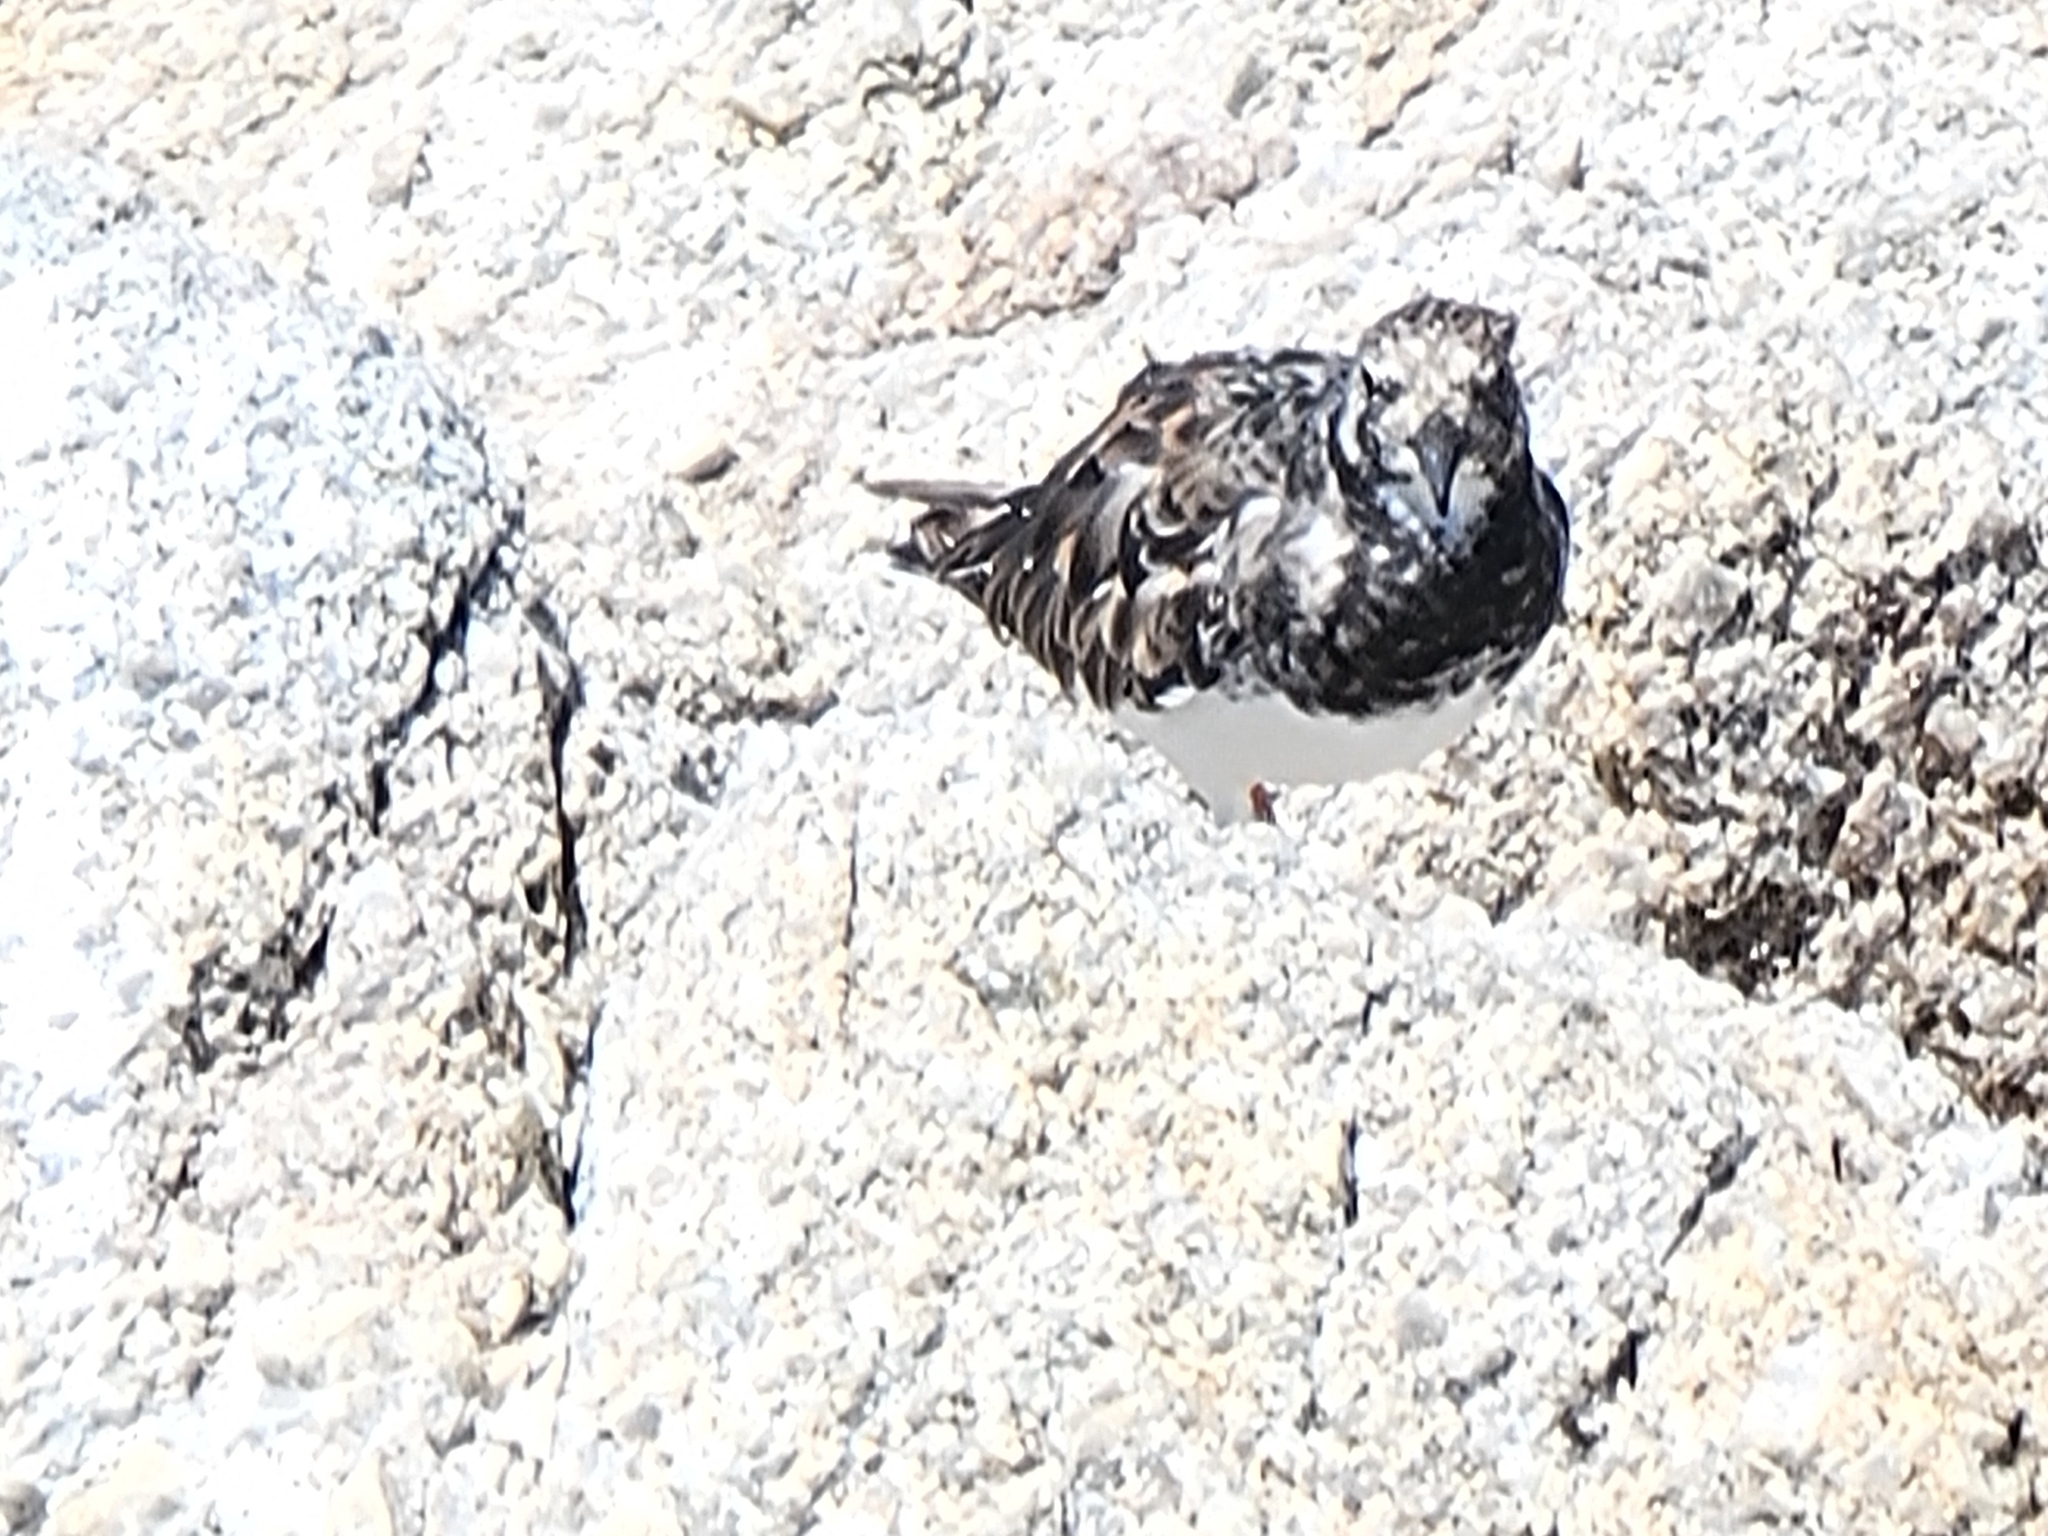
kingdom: Animalia
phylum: Chordata
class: Aves
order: Charadriiformes
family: Scolopacidae
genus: Arenaria
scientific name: Arenaria interpres
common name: Ruddy turnstone
